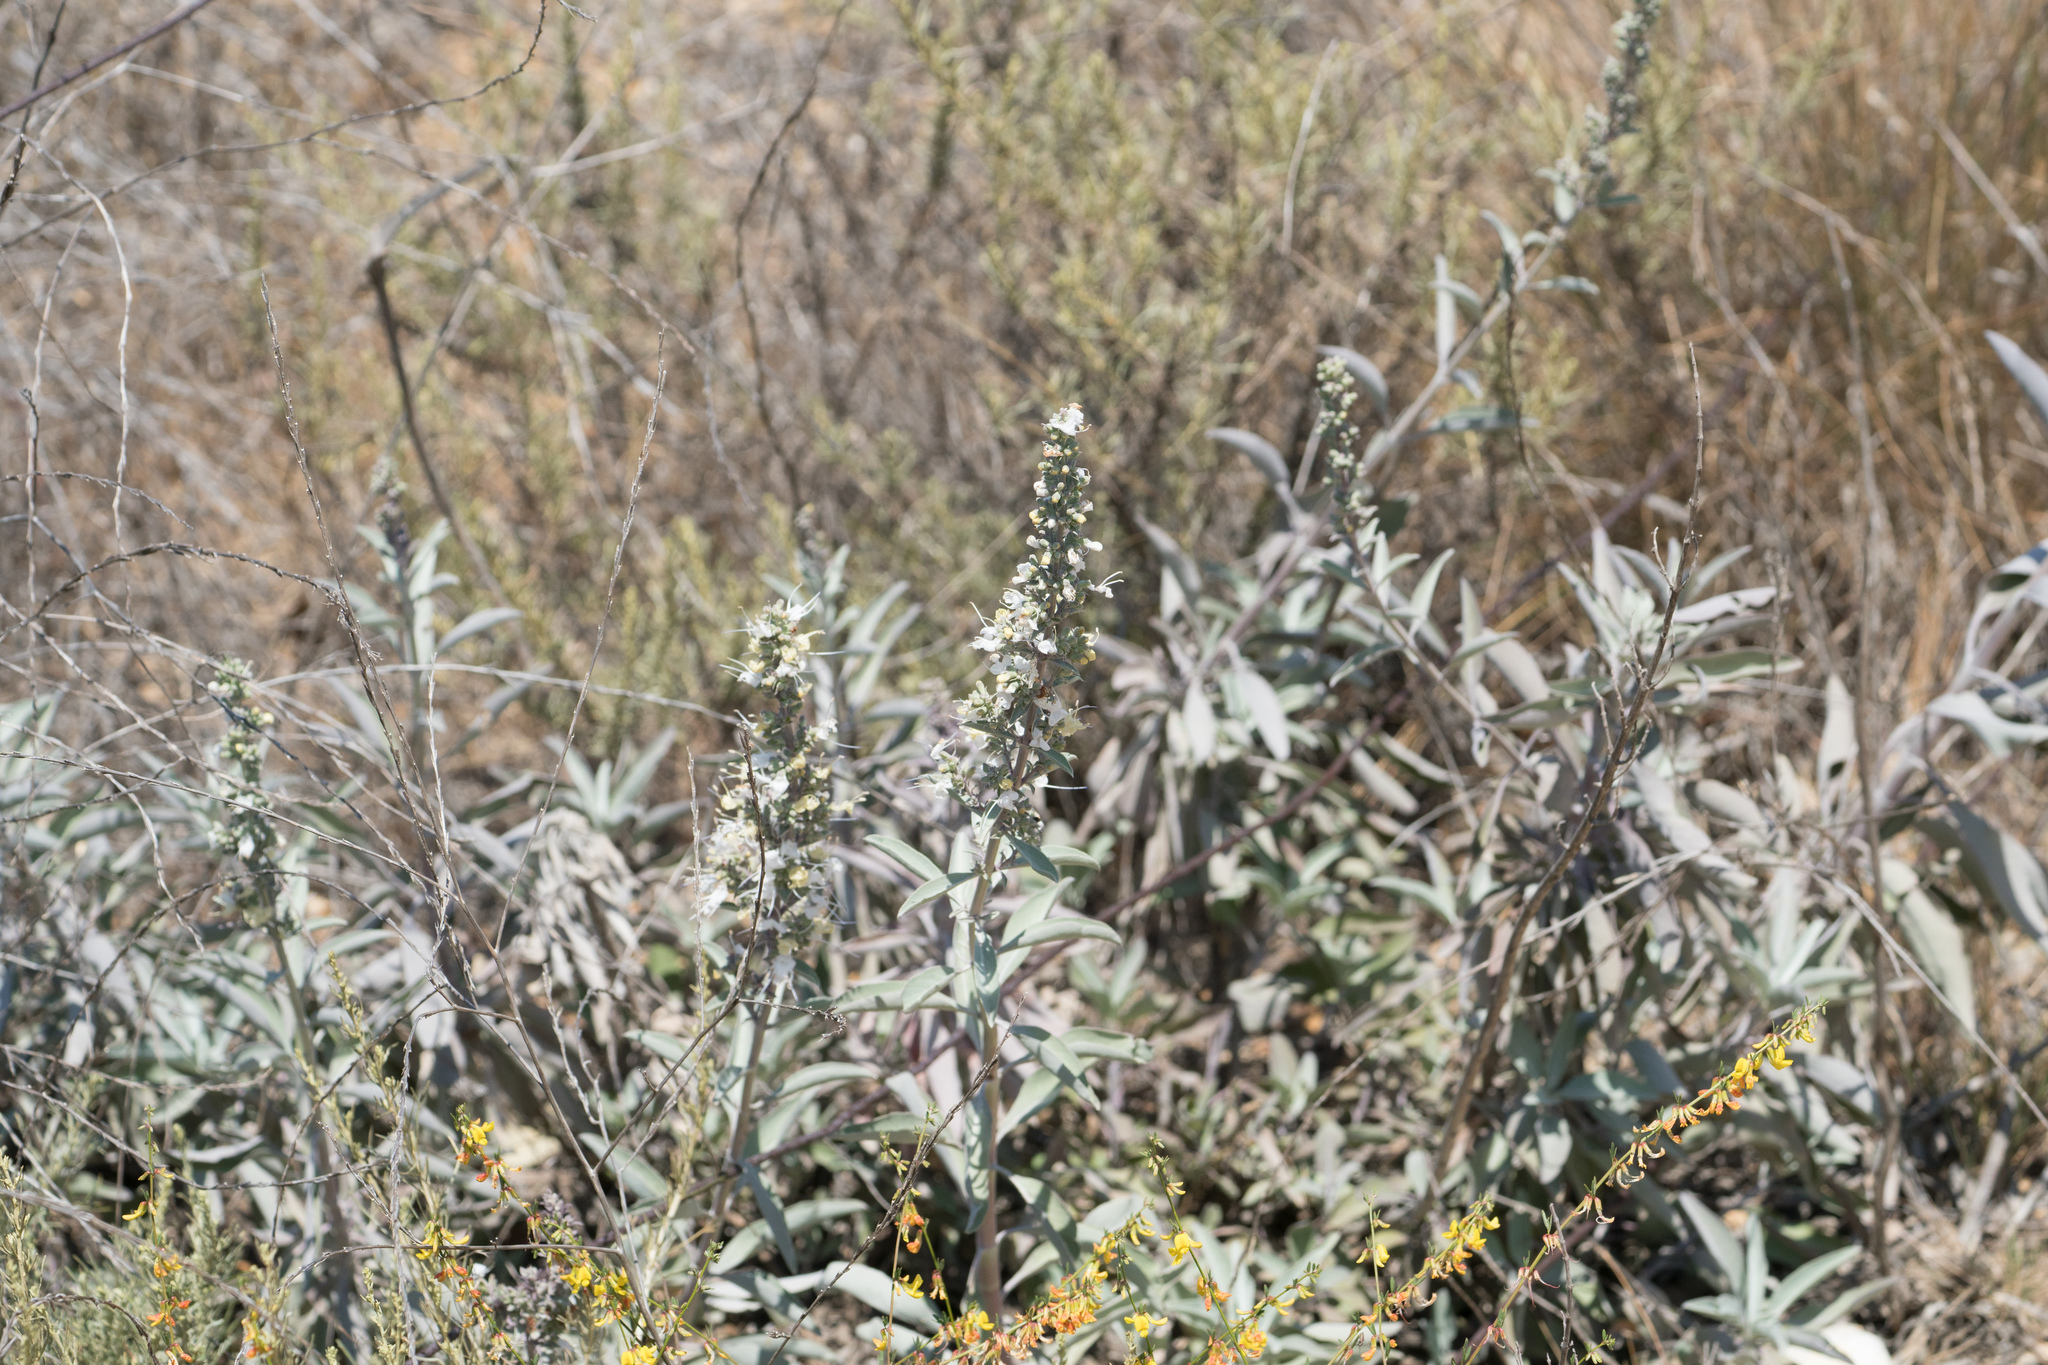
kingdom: Plantae
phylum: Tracheophyta
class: Magnoliopsida
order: Lamiales
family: Lamiaceae
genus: Salvia
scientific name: Salvia apiana
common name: White sage
